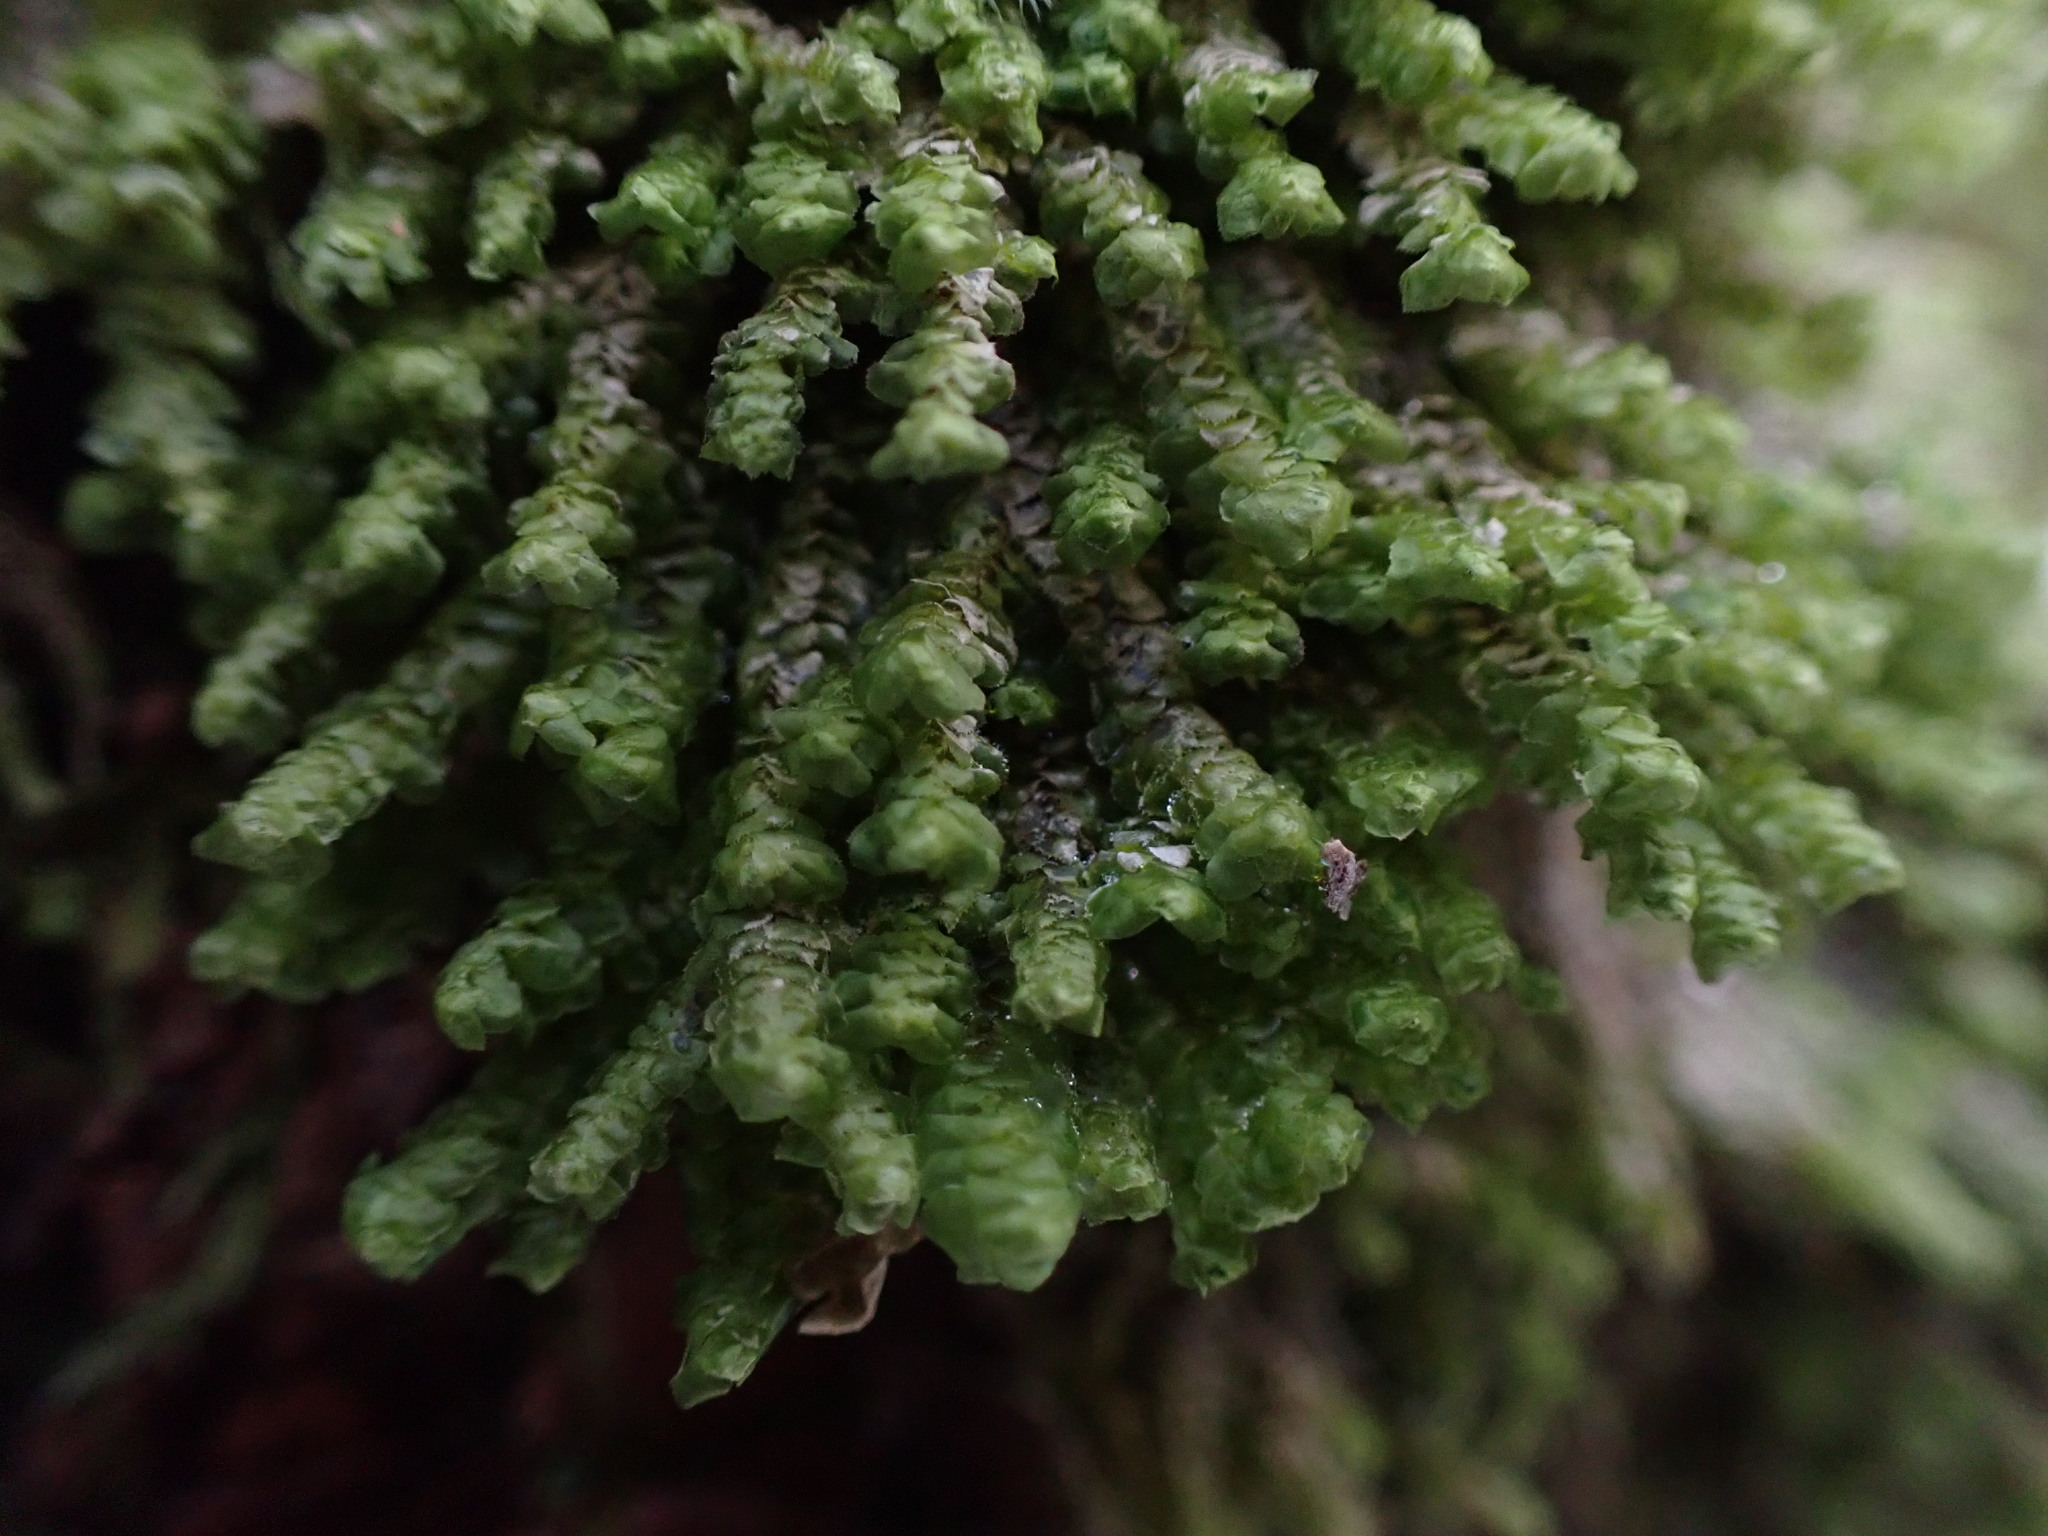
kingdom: Plantae
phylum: Marchantiophyta
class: Jungermanniopsida
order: Jungermanniales
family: Scapaniaceae
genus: Scapania
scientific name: Scapania bolanderi
